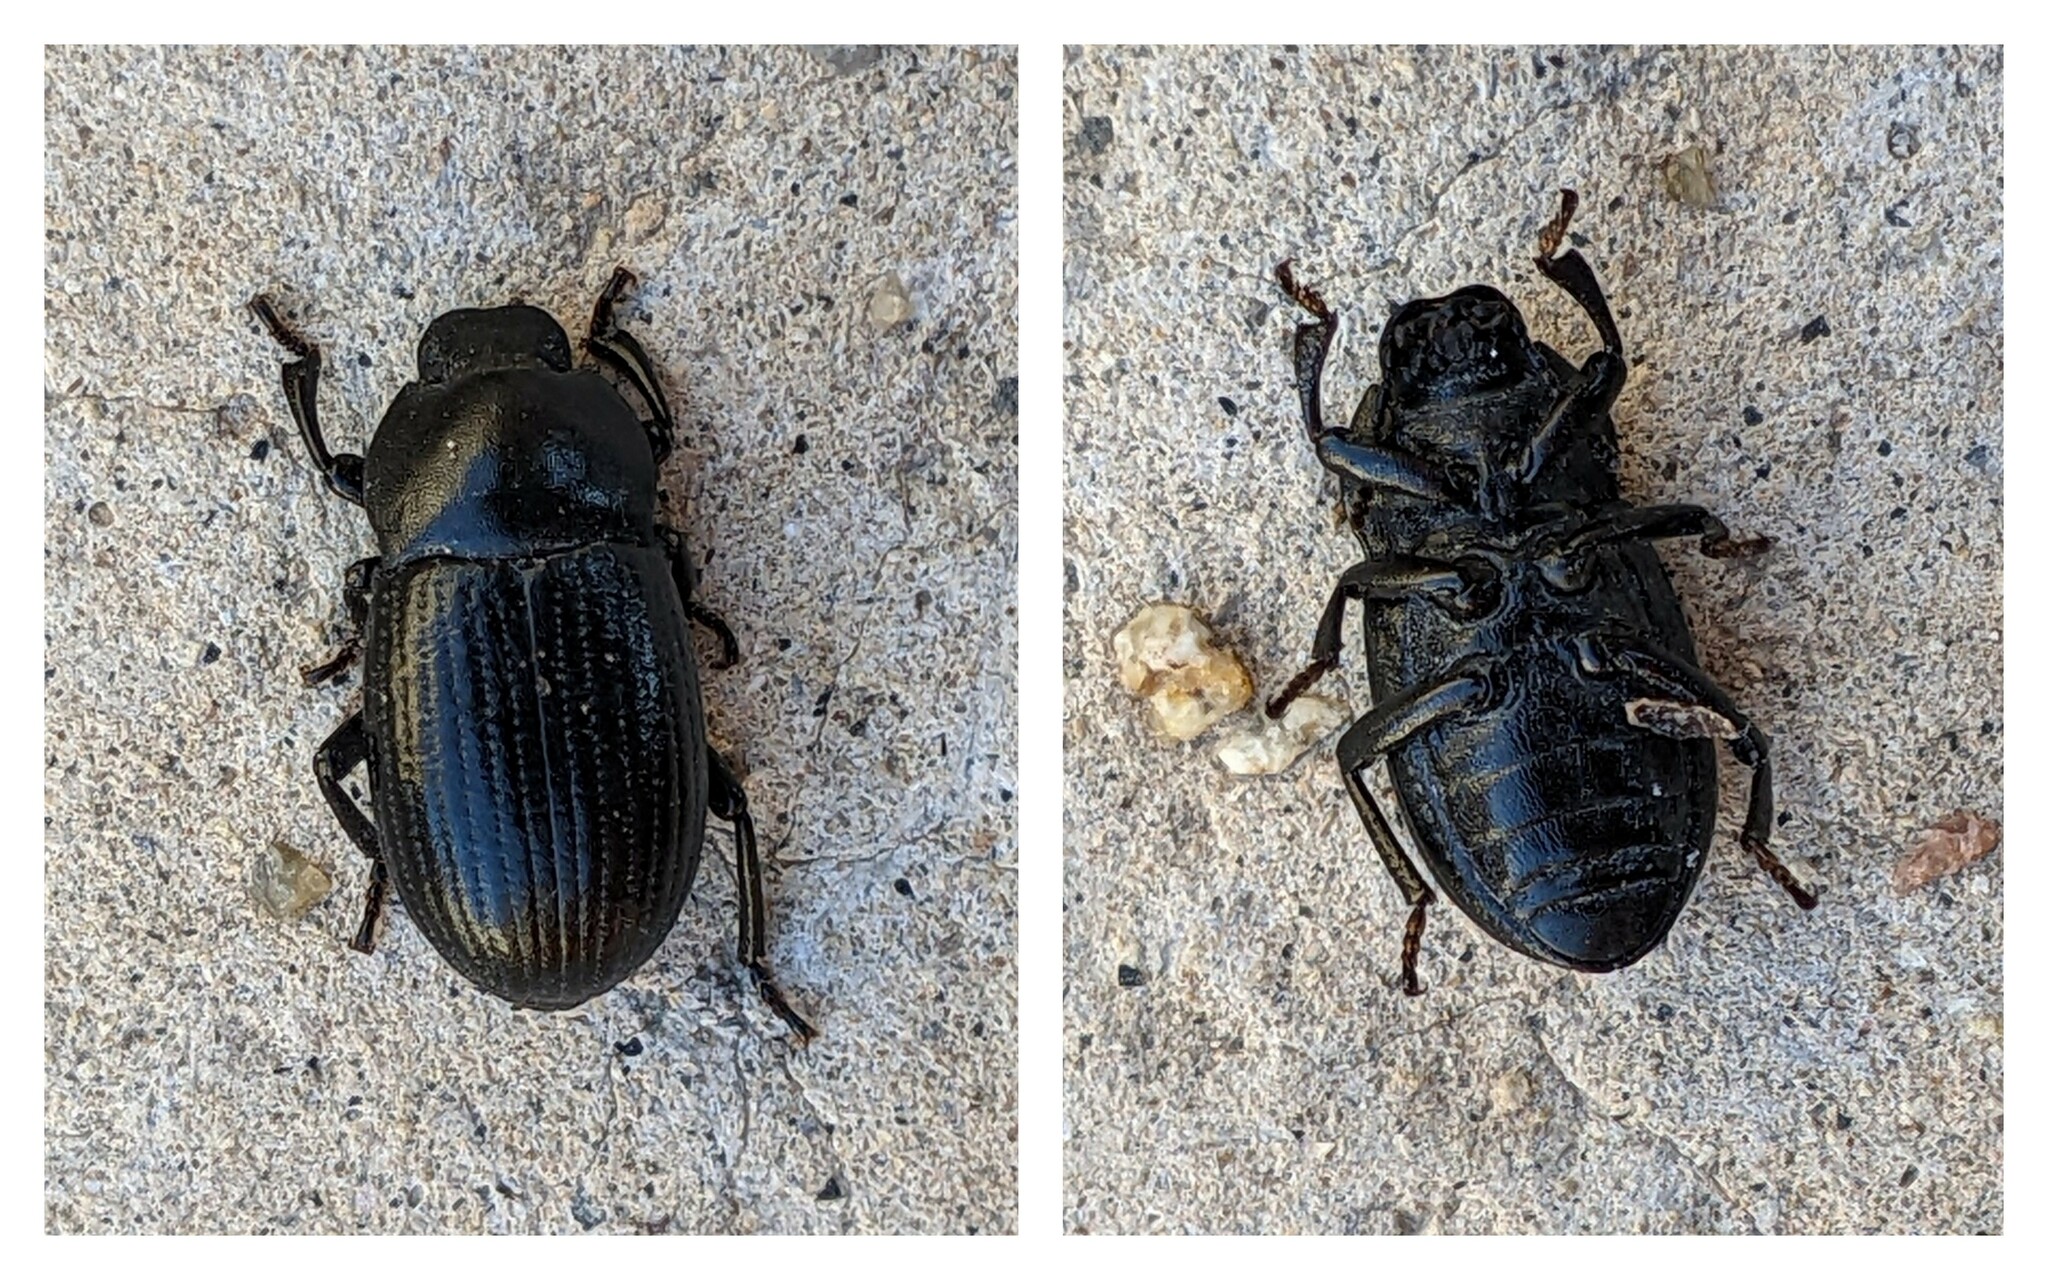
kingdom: Animalia
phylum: Arthropoda
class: Insecta
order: Coleoptera
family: Tenebrionidae
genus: Bioplanes
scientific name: Bioplanes meridionalis
